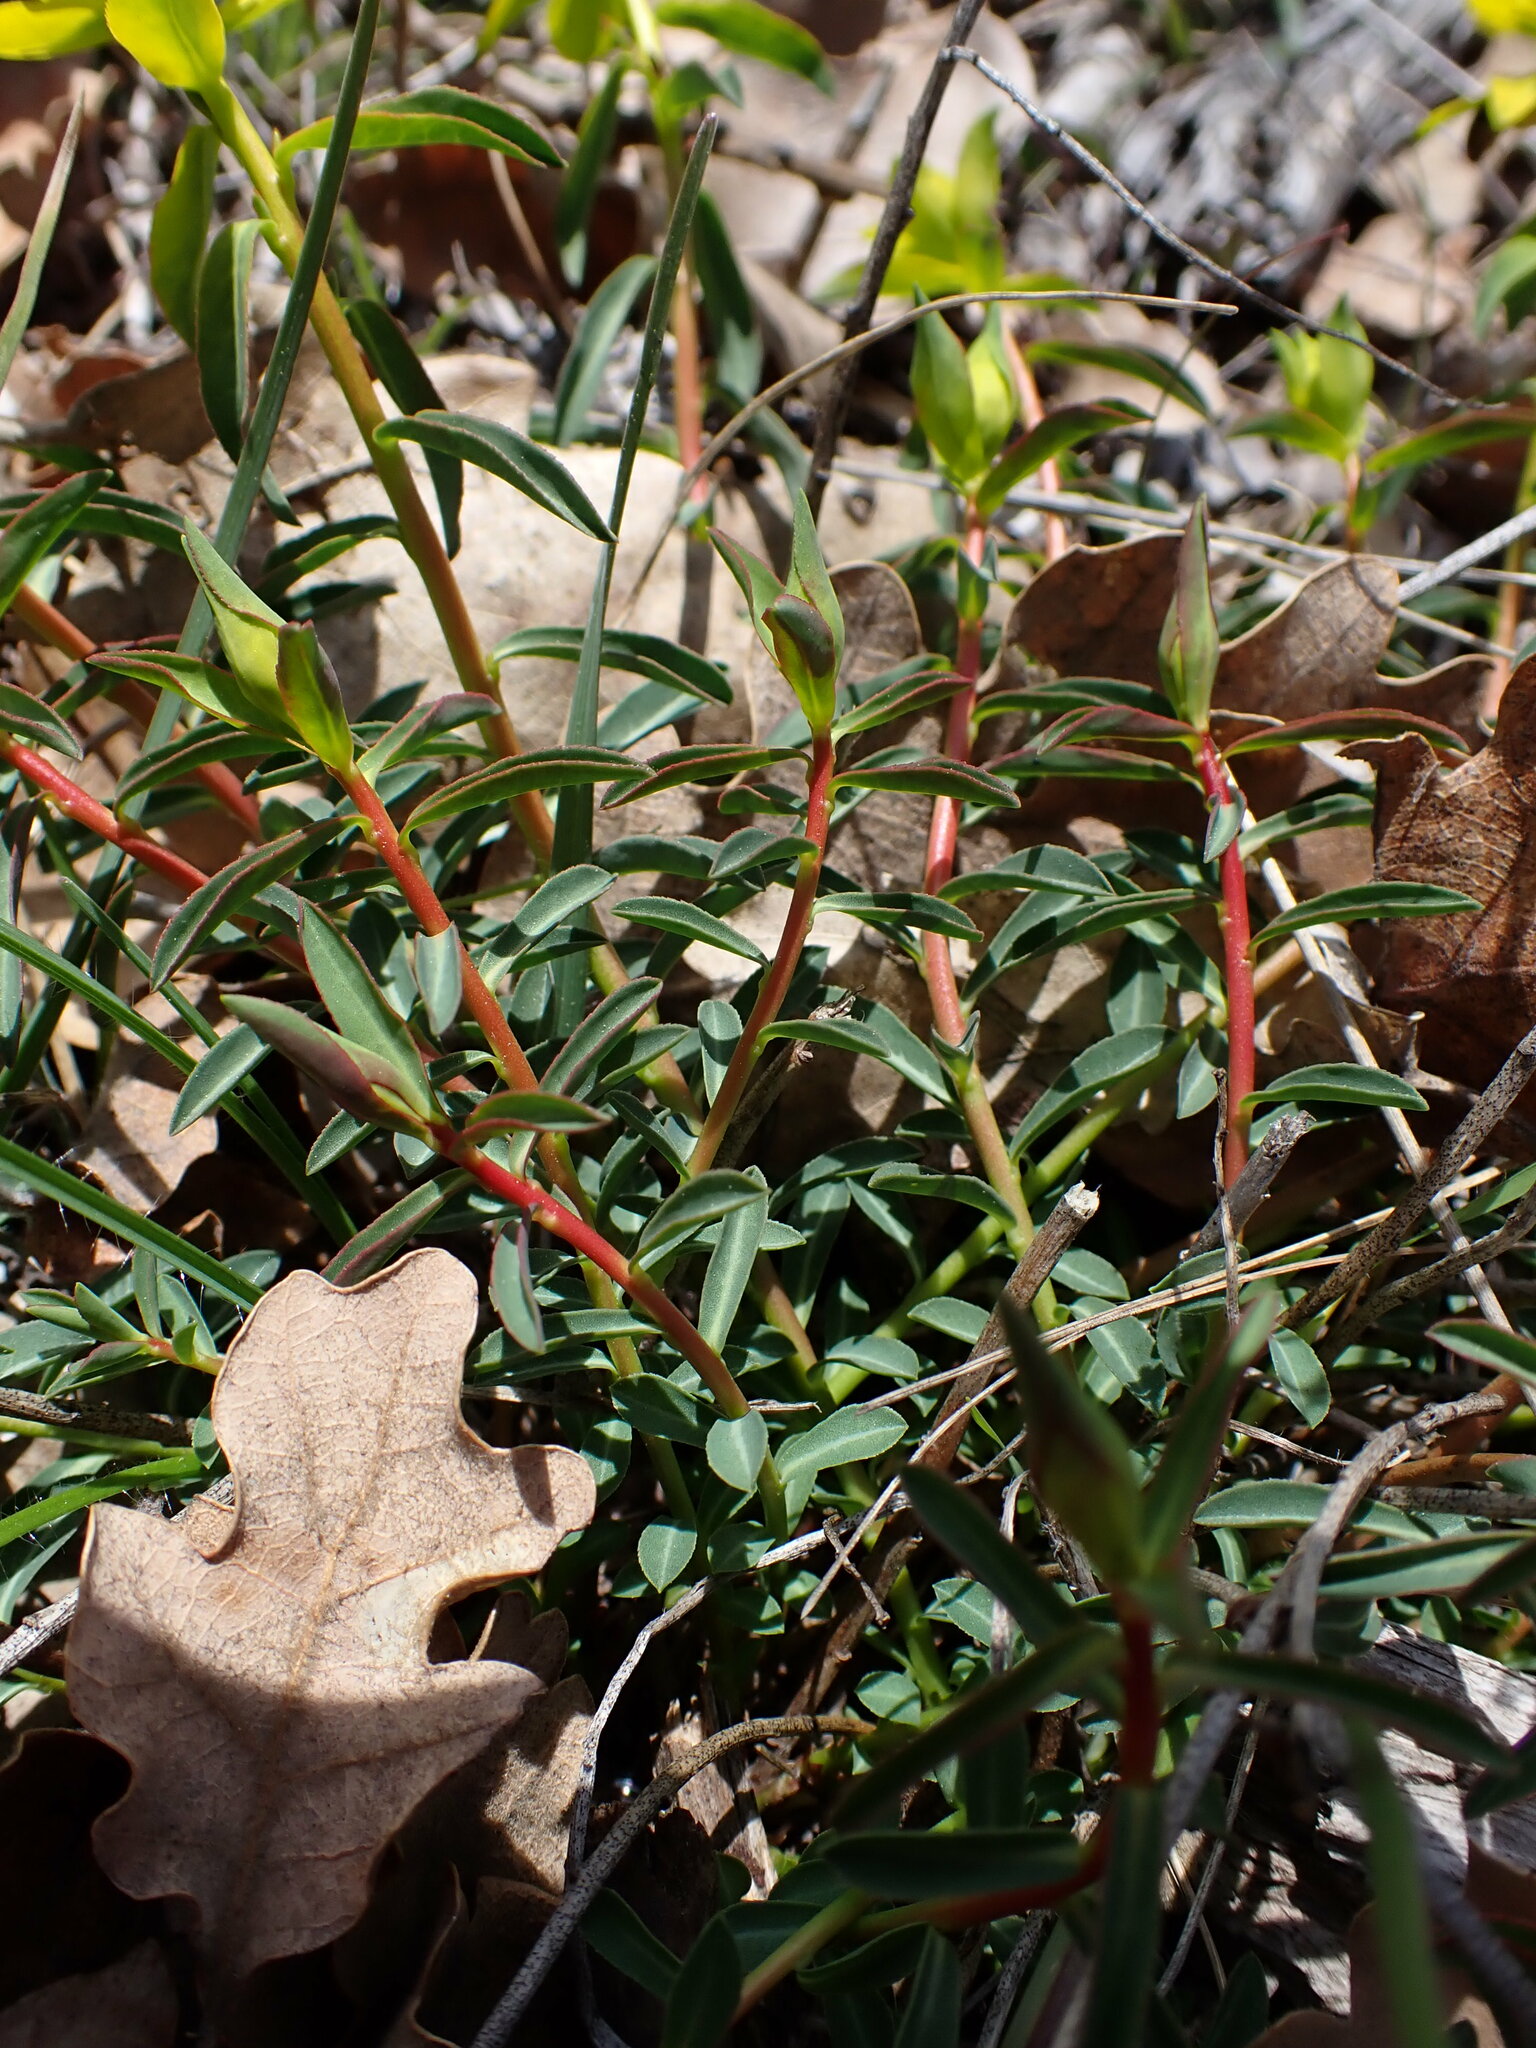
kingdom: Plantae
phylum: Tracheophyta
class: Magnoliopsida
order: Malpighiales
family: Euphorbiaceae
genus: Euphorbia
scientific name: Euphorbia flavicoma
